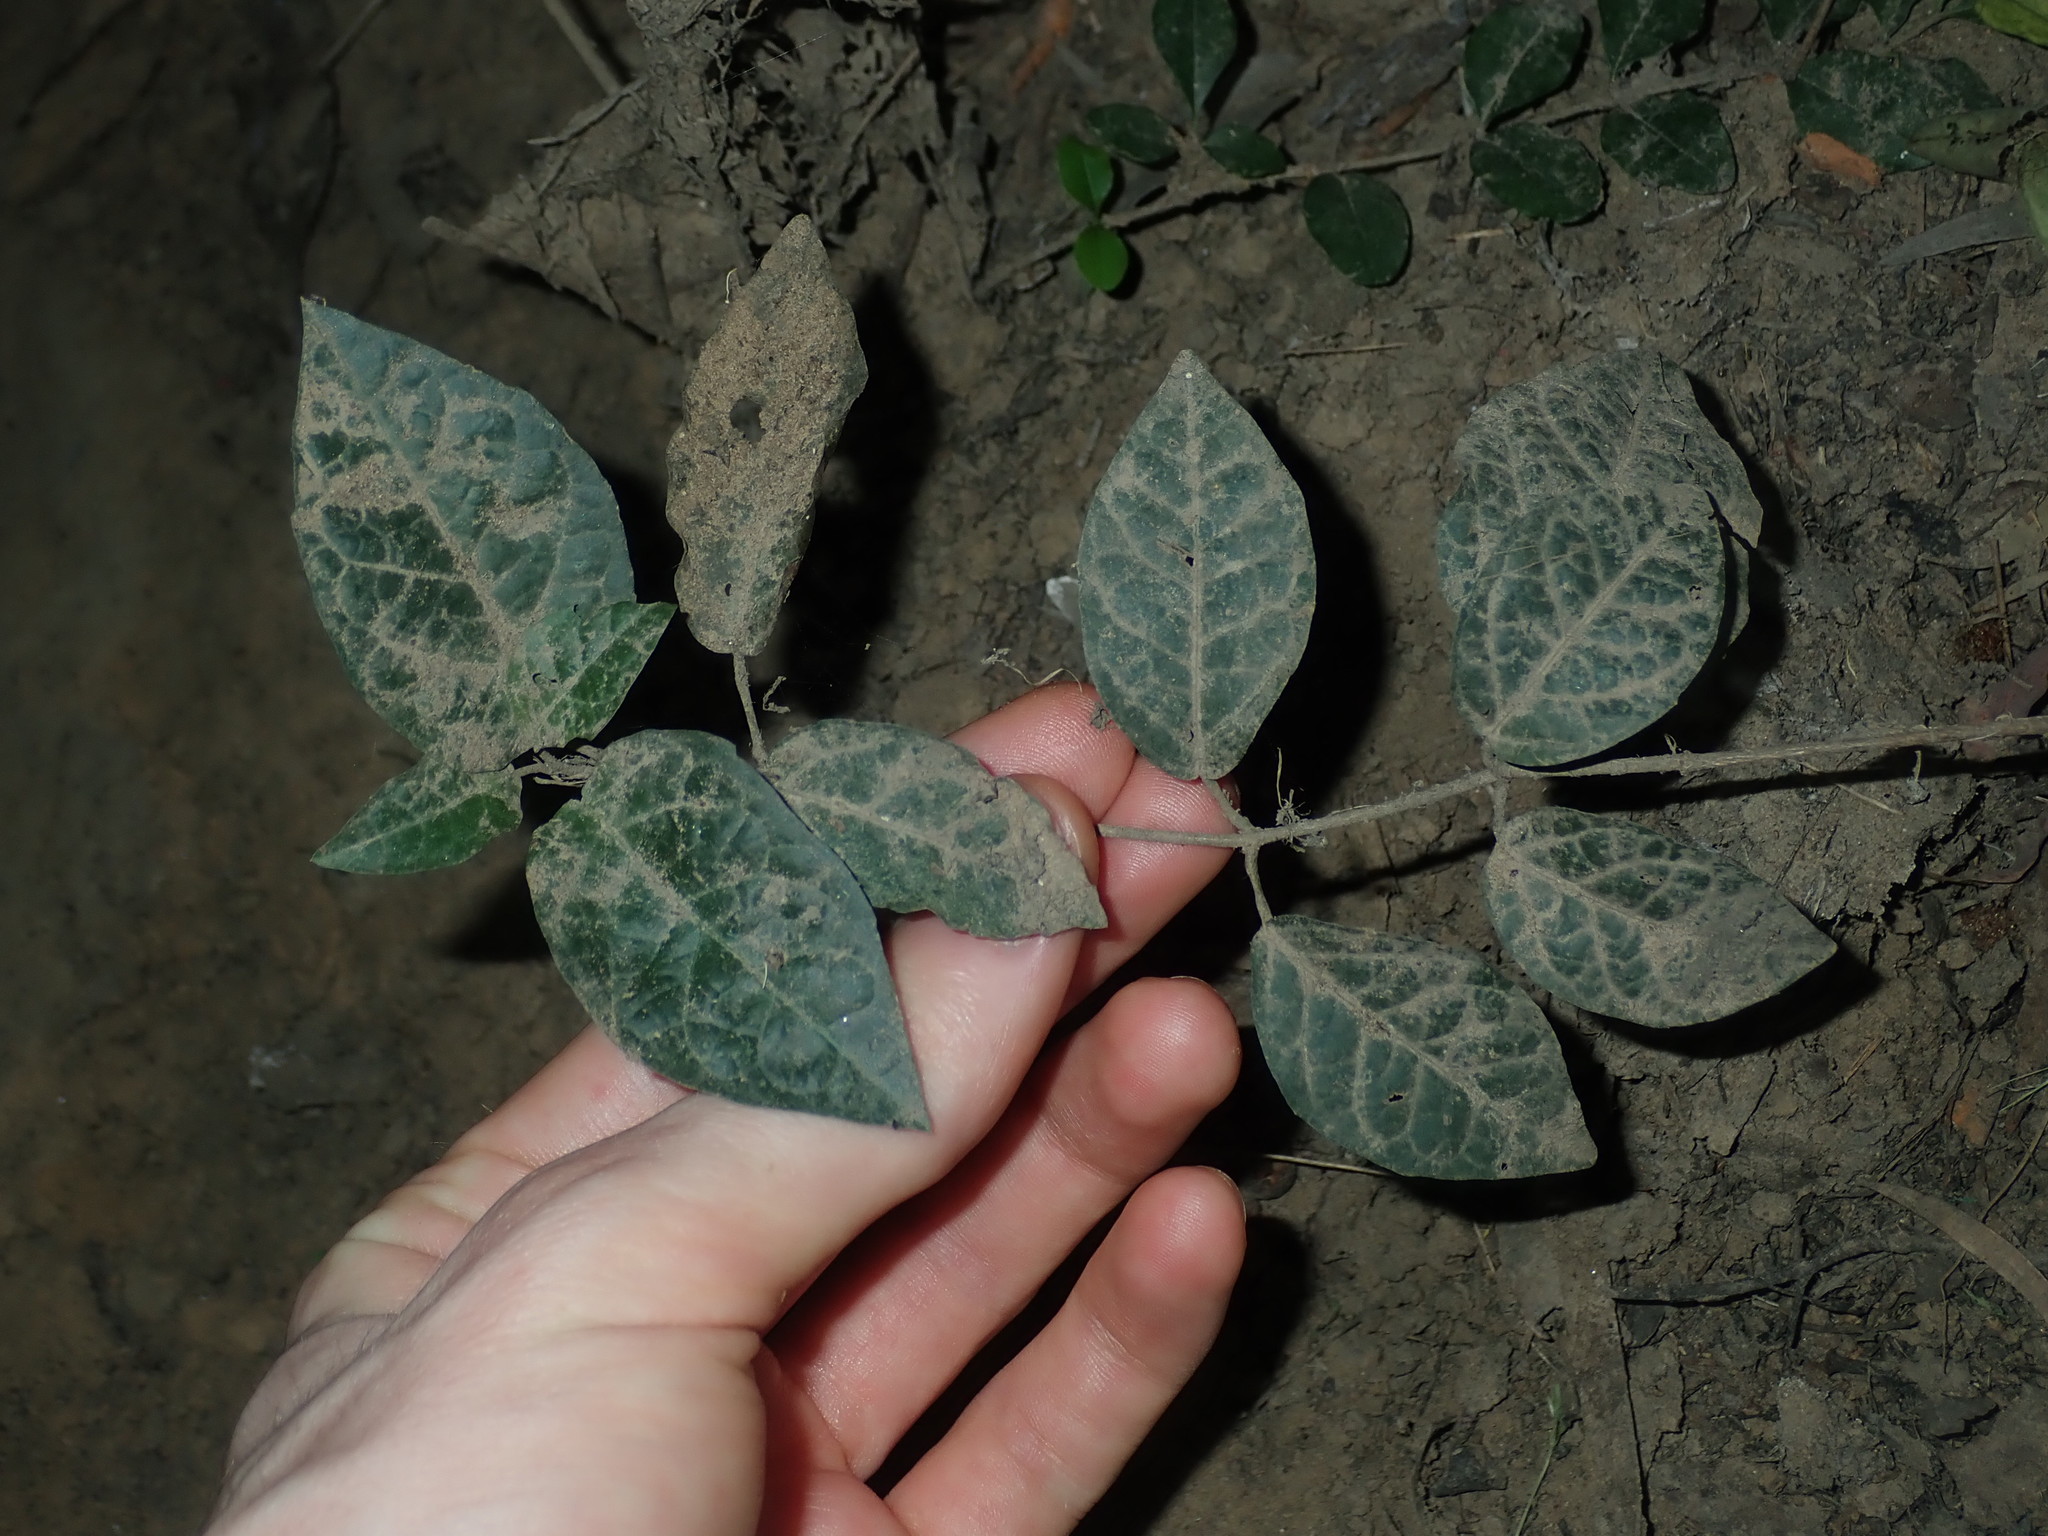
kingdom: Plantae
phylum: Tracheophyta
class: Magnoliopsida
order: Lamiales
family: Bignoniaceae
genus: Dolichandra
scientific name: Dolichandra unguis-cati
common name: Catclaw vine
